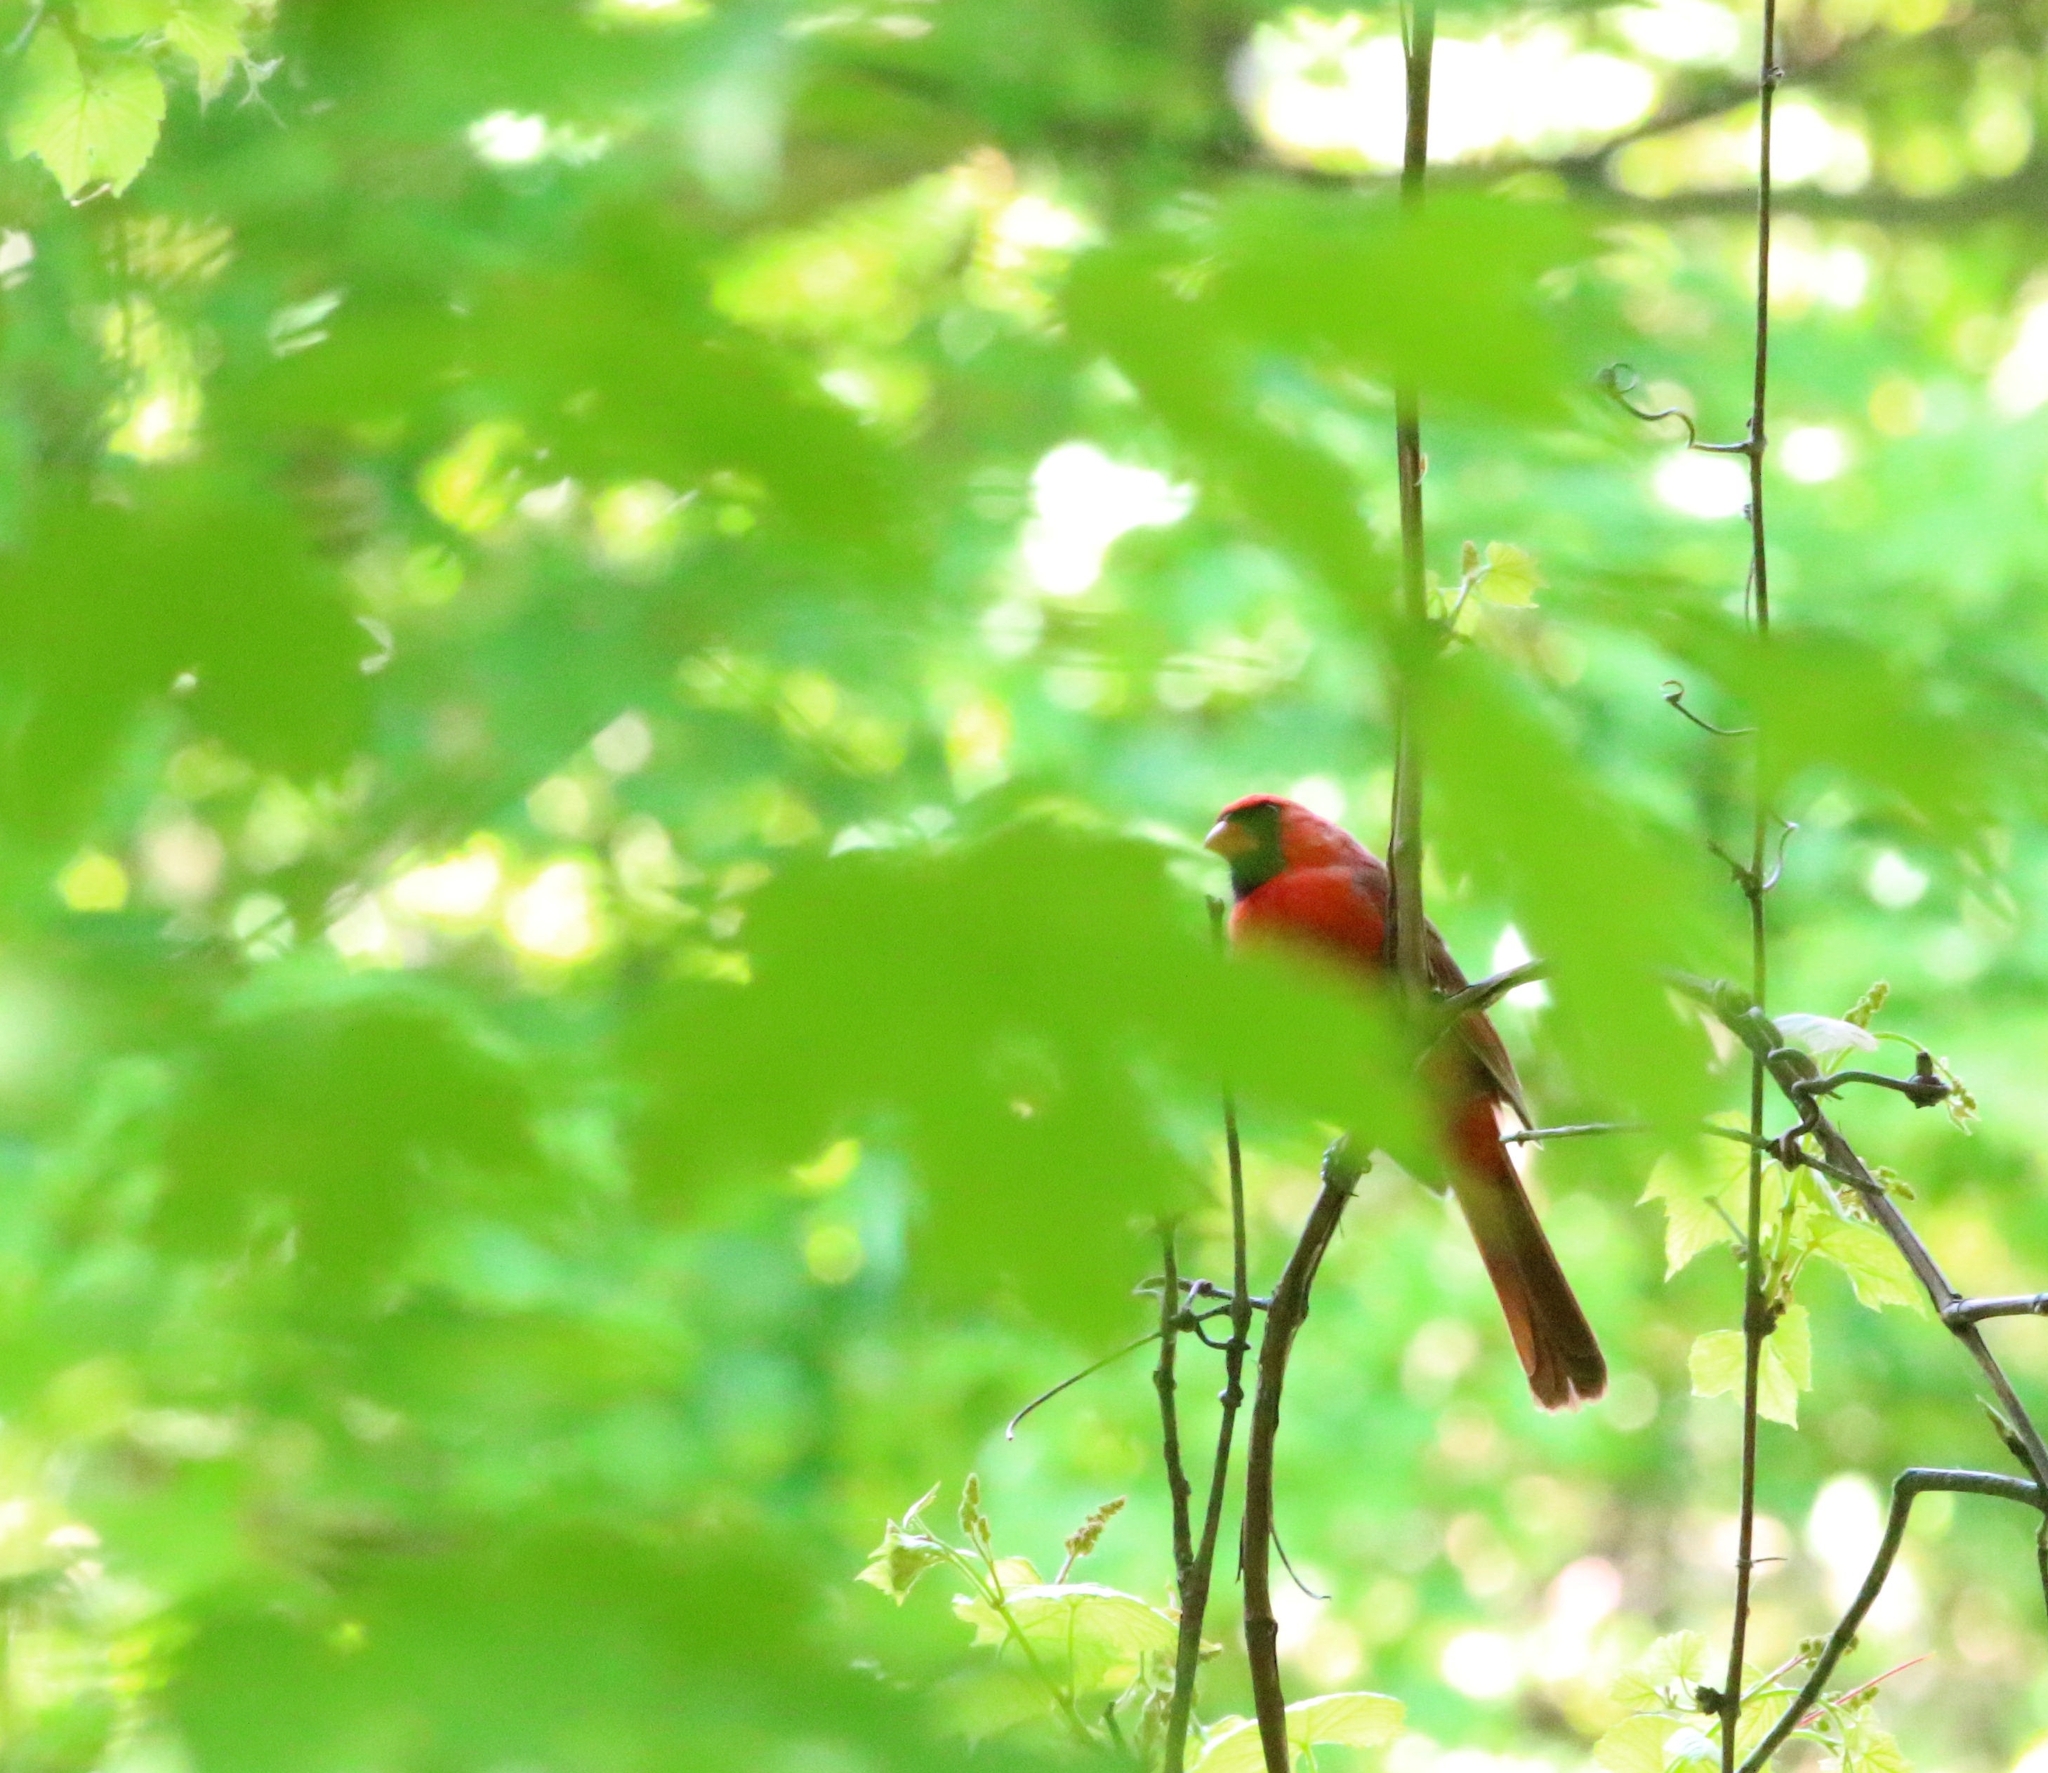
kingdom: Animalia
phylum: Chordata
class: Aves
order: Passeriformes
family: Cardinalidae
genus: Cardinalis
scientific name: Cardinalis cardinalis
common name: Northern cardinal
